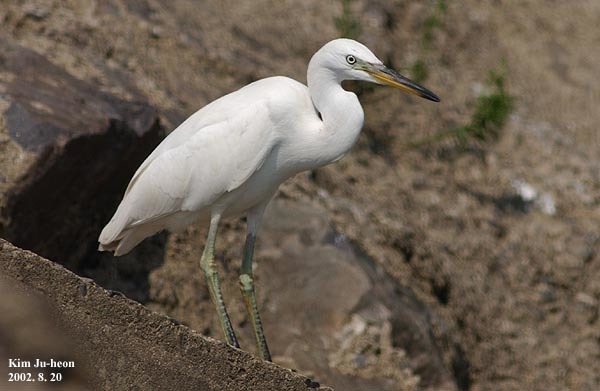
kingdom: Animalia
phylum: Chordata
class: Aves
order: Pelecaniformes
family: Ardeidae
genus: Egretta
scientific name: Egretta garzetta
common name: Little egret
